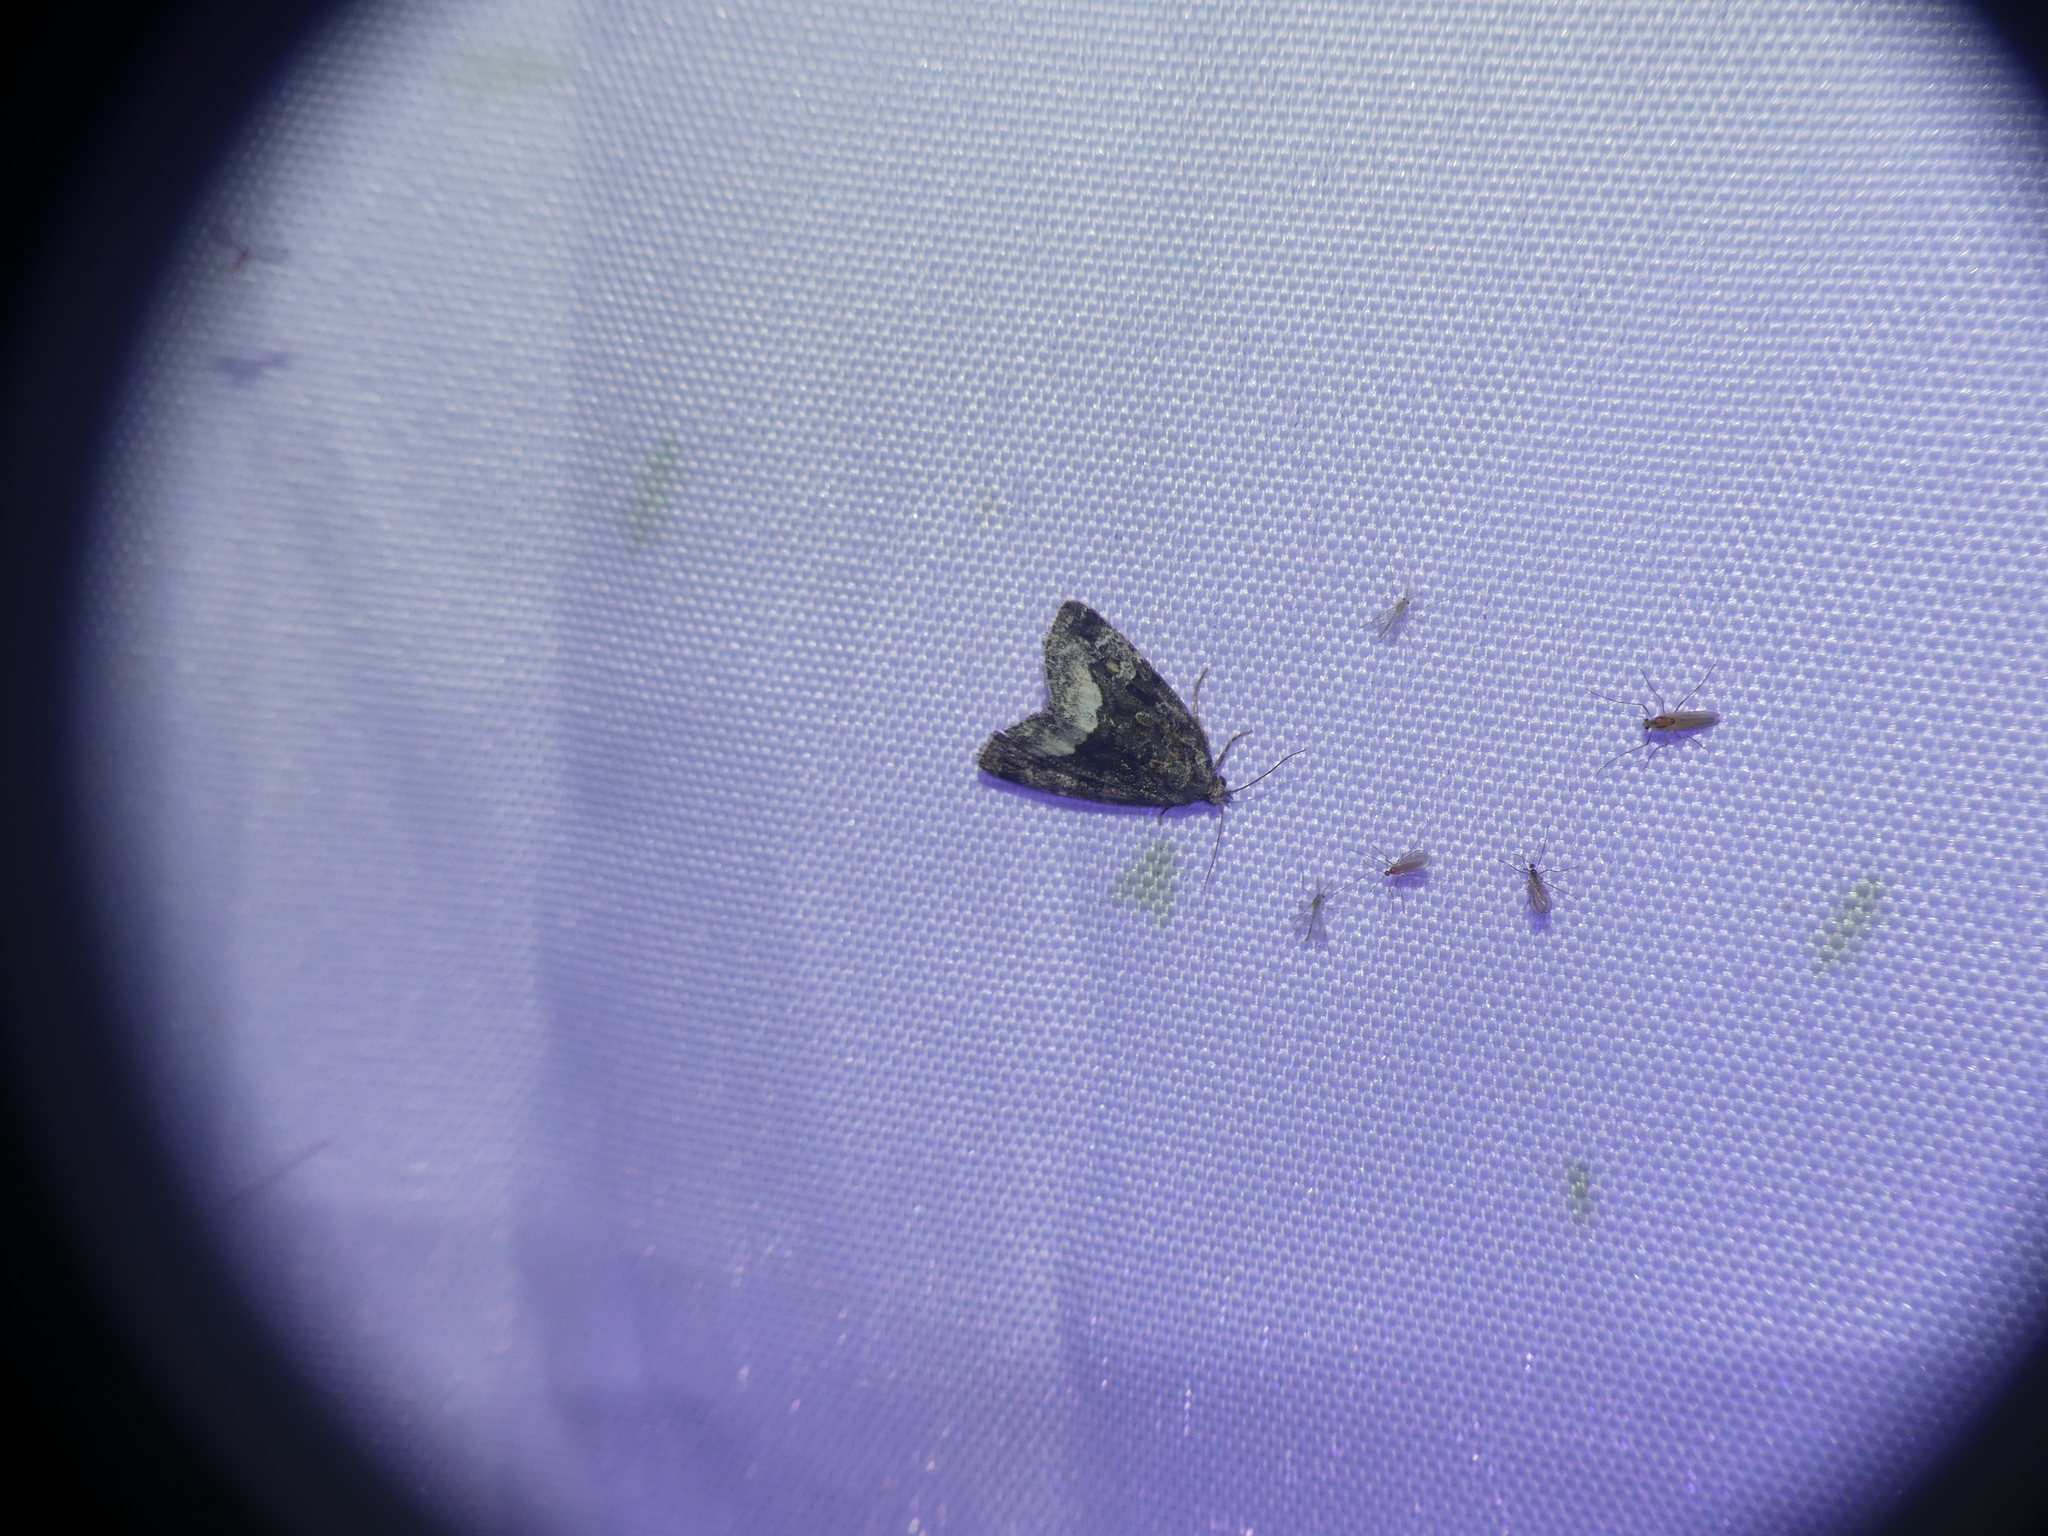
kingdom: Animalia
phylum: Arthropoda
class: Insecta
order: Lepidoptera
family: Noctuidae
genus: Deltote
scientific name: Deltote pygarga
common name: Marbled white spot
